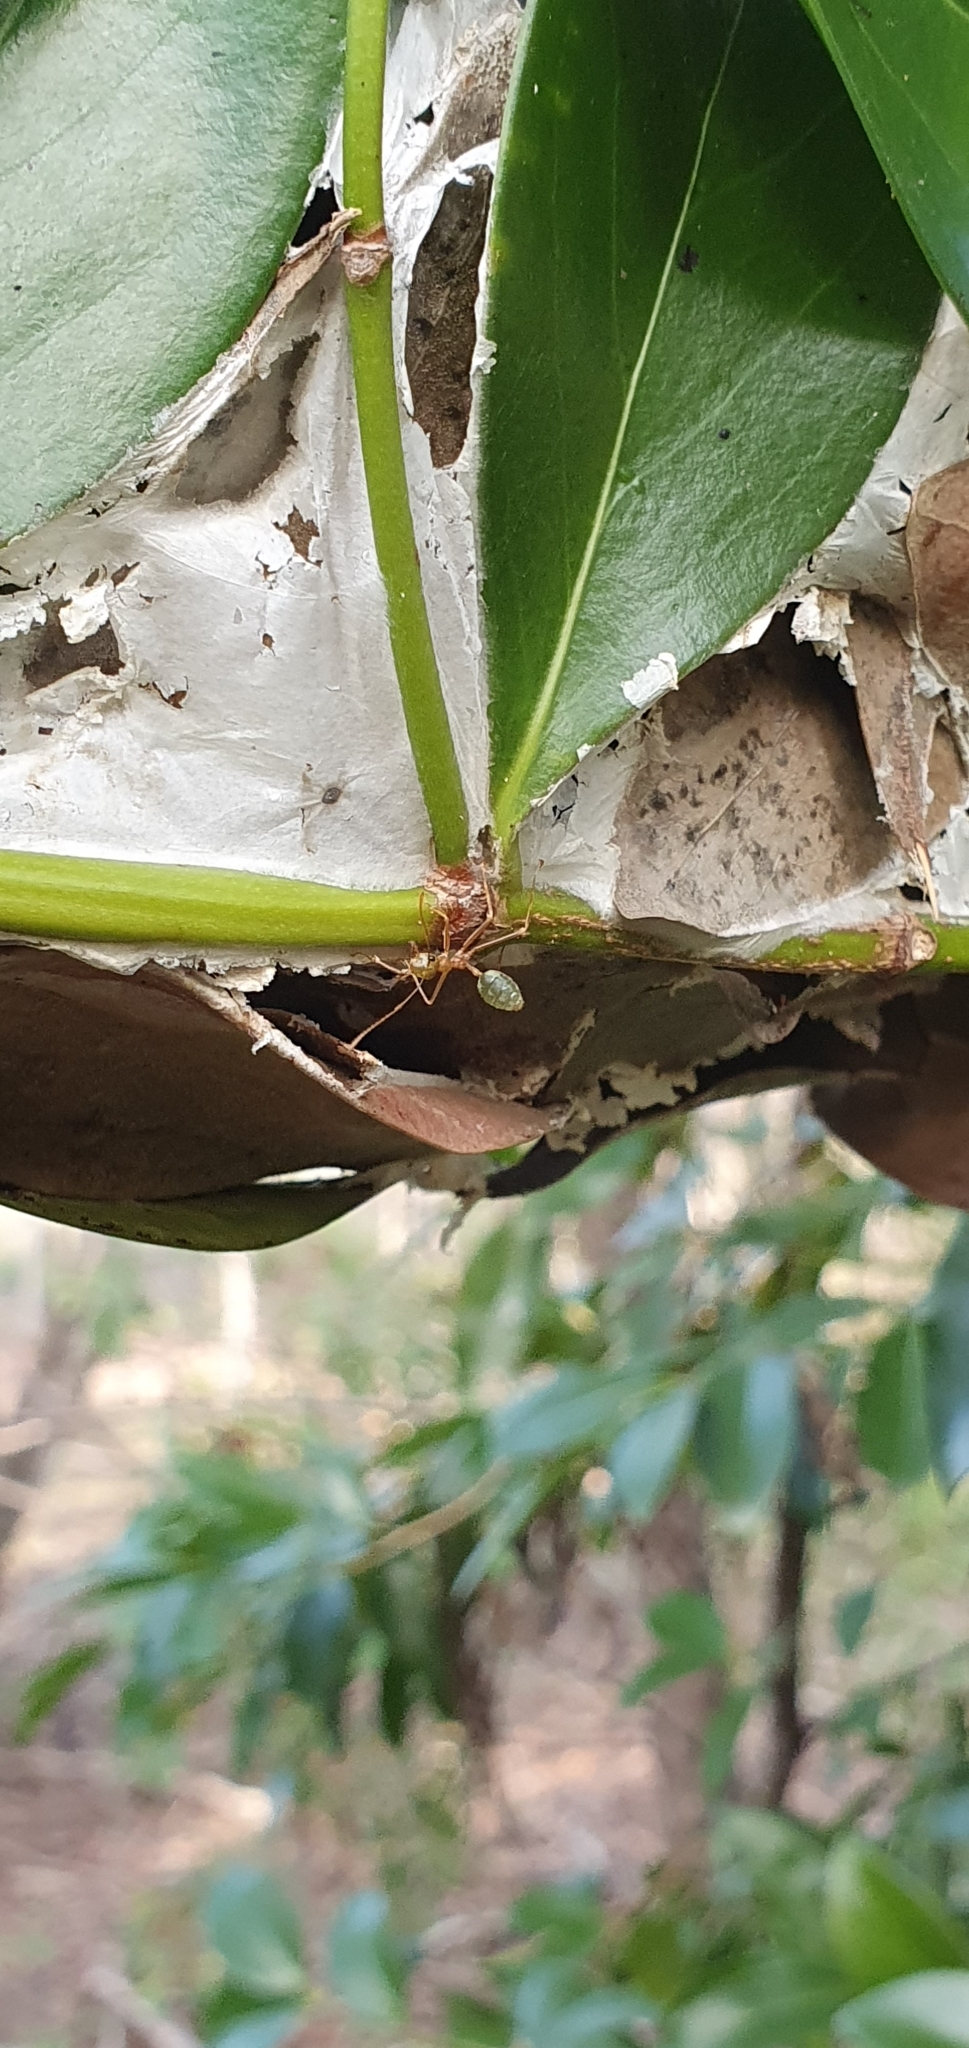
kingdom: Animalia
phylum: Arthropoda
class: Insecta
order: Hymenoptera
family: Formicidae
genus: Oecophylla
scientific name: Oecophylla smaragdina
